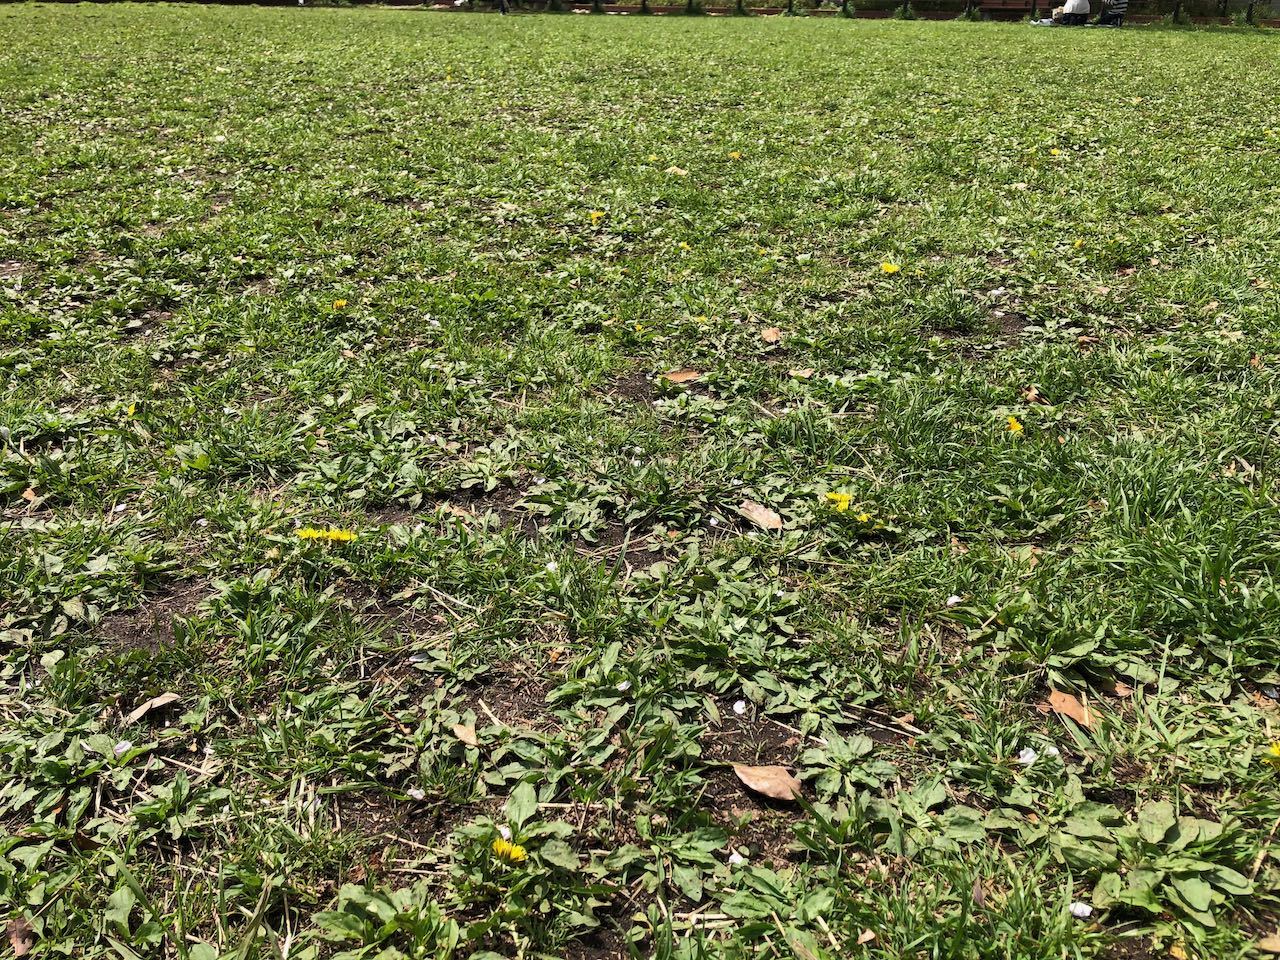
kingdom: Plantae
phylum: Tracheophyta
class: Magnoliopsida
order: Asterales
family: Asteraceae
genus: Taraxacum
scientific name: Taraxacum officinale
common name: Common dandelion
